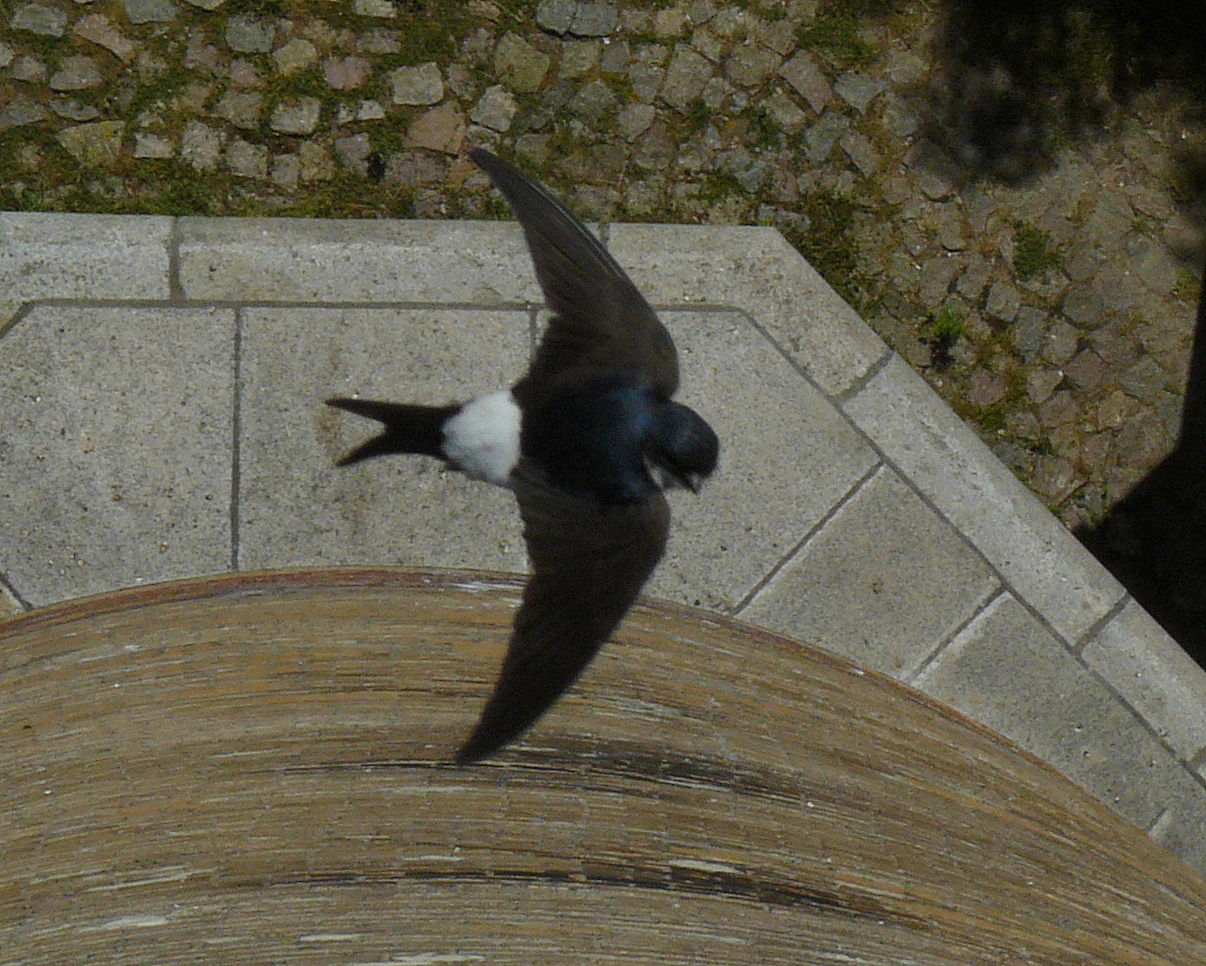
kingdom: Animalia
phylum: Chordata
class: Aves
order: Passeriformes
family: Hirundinidae
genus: Delichon
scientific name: Delichon urbicum
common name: Common house martin
